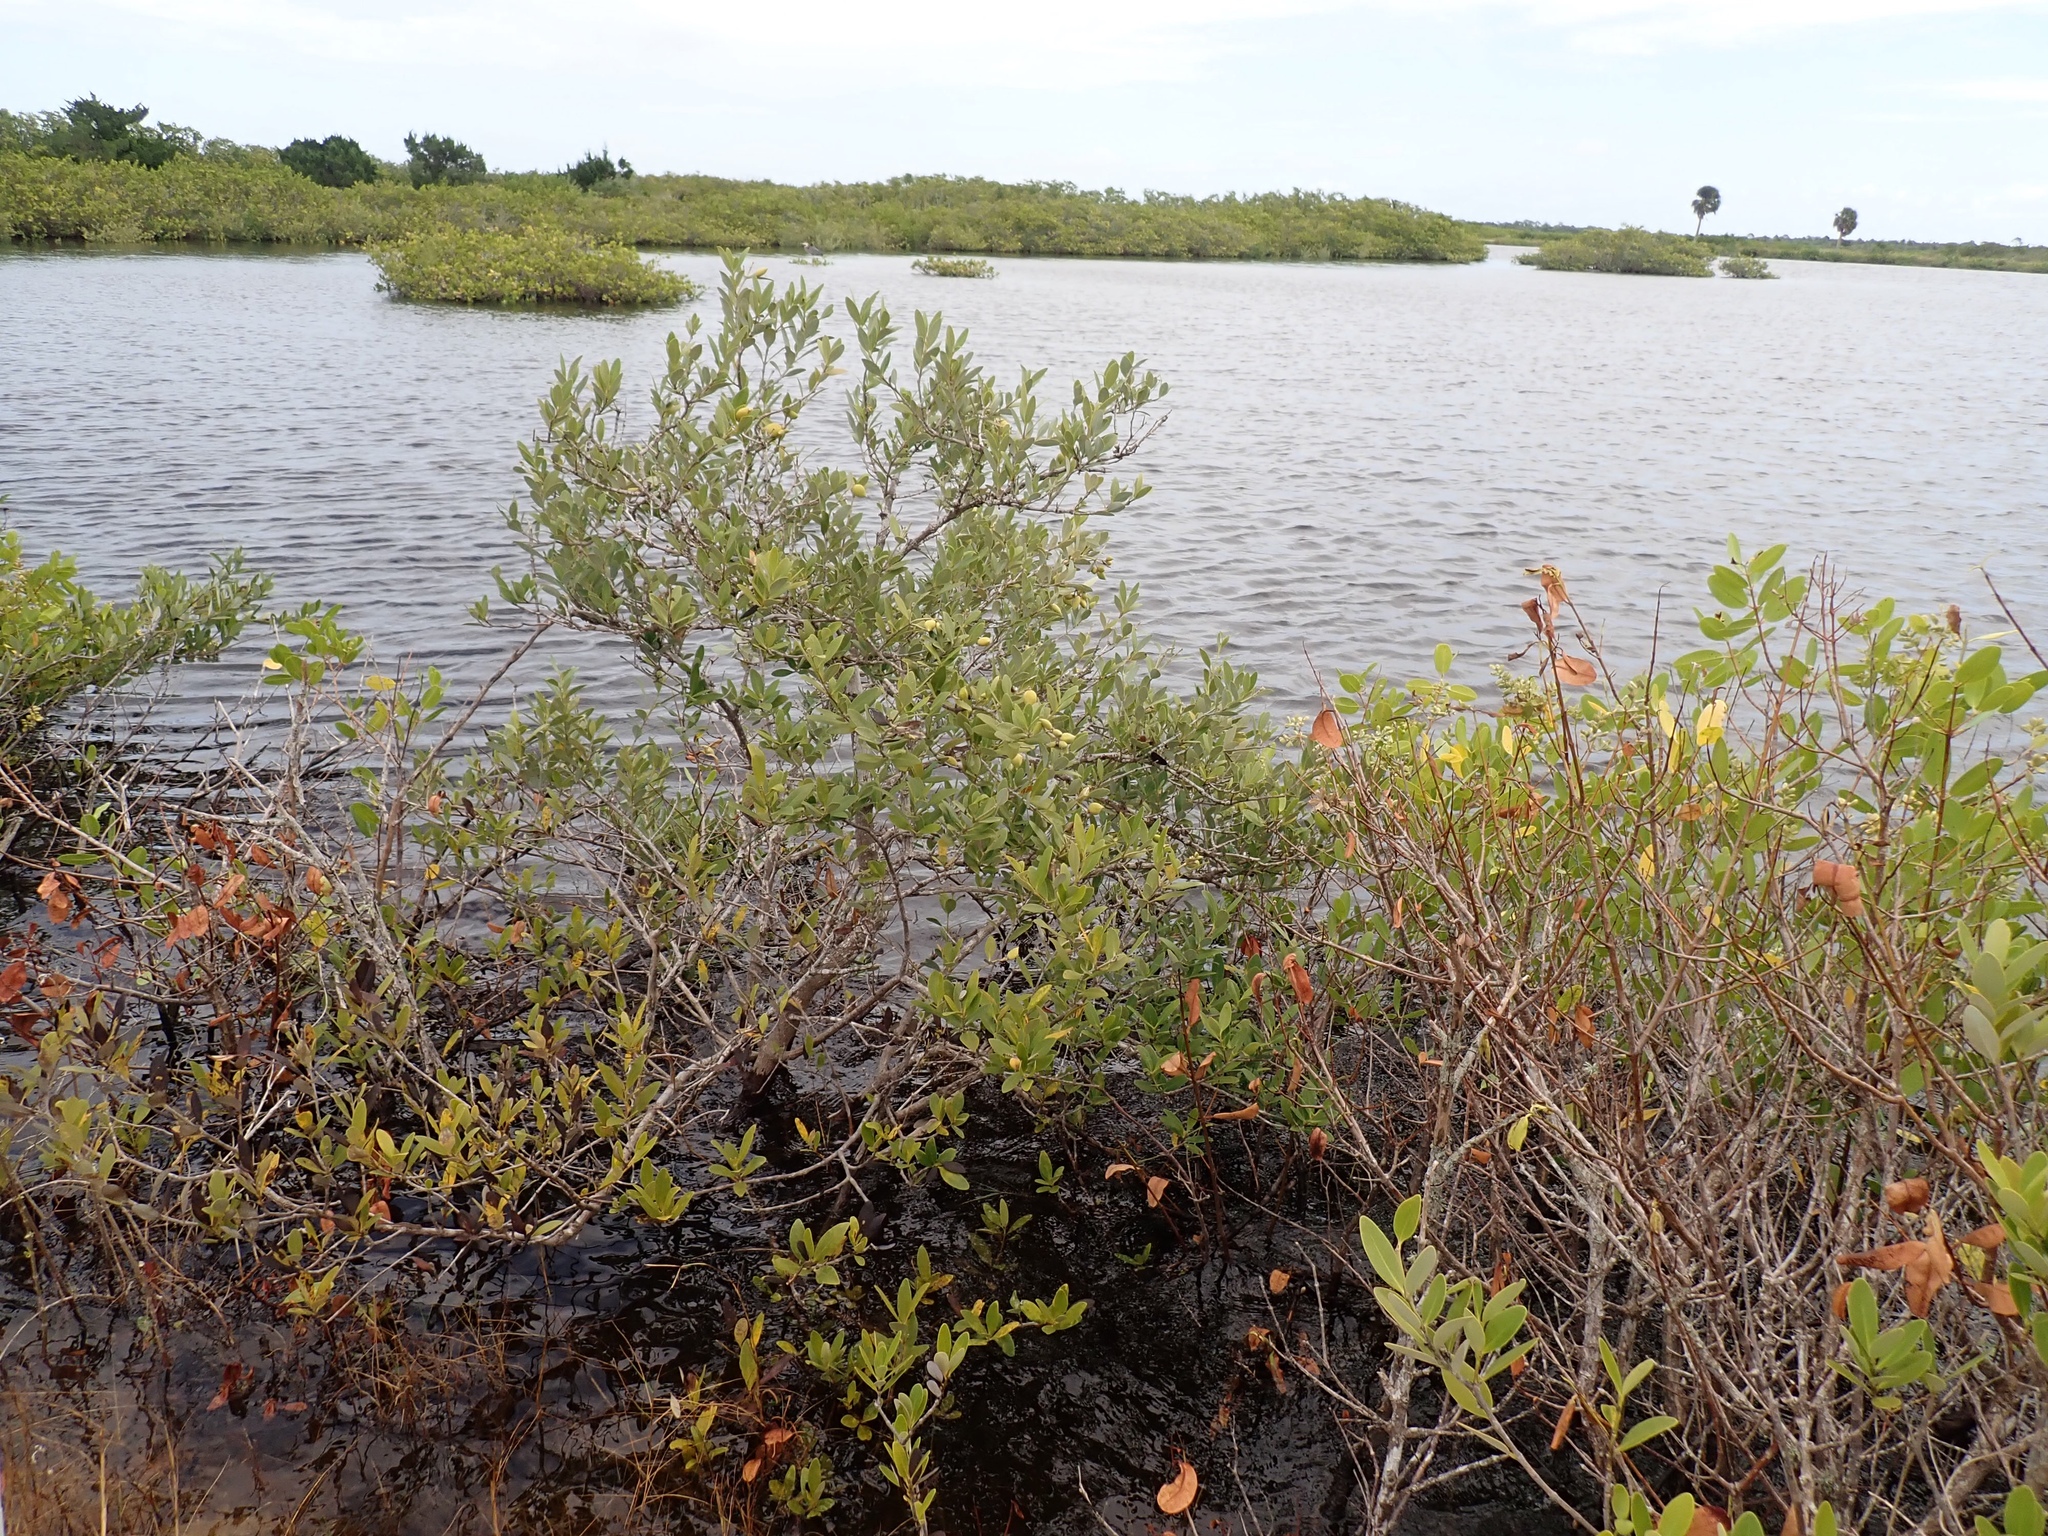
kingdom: Plantae
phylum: Tracheophyta
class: Magnoliopsida
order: Lamiales
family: Acanthaceae
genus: Avicennia
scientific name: Avicennia germinans
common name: Black mangrove
